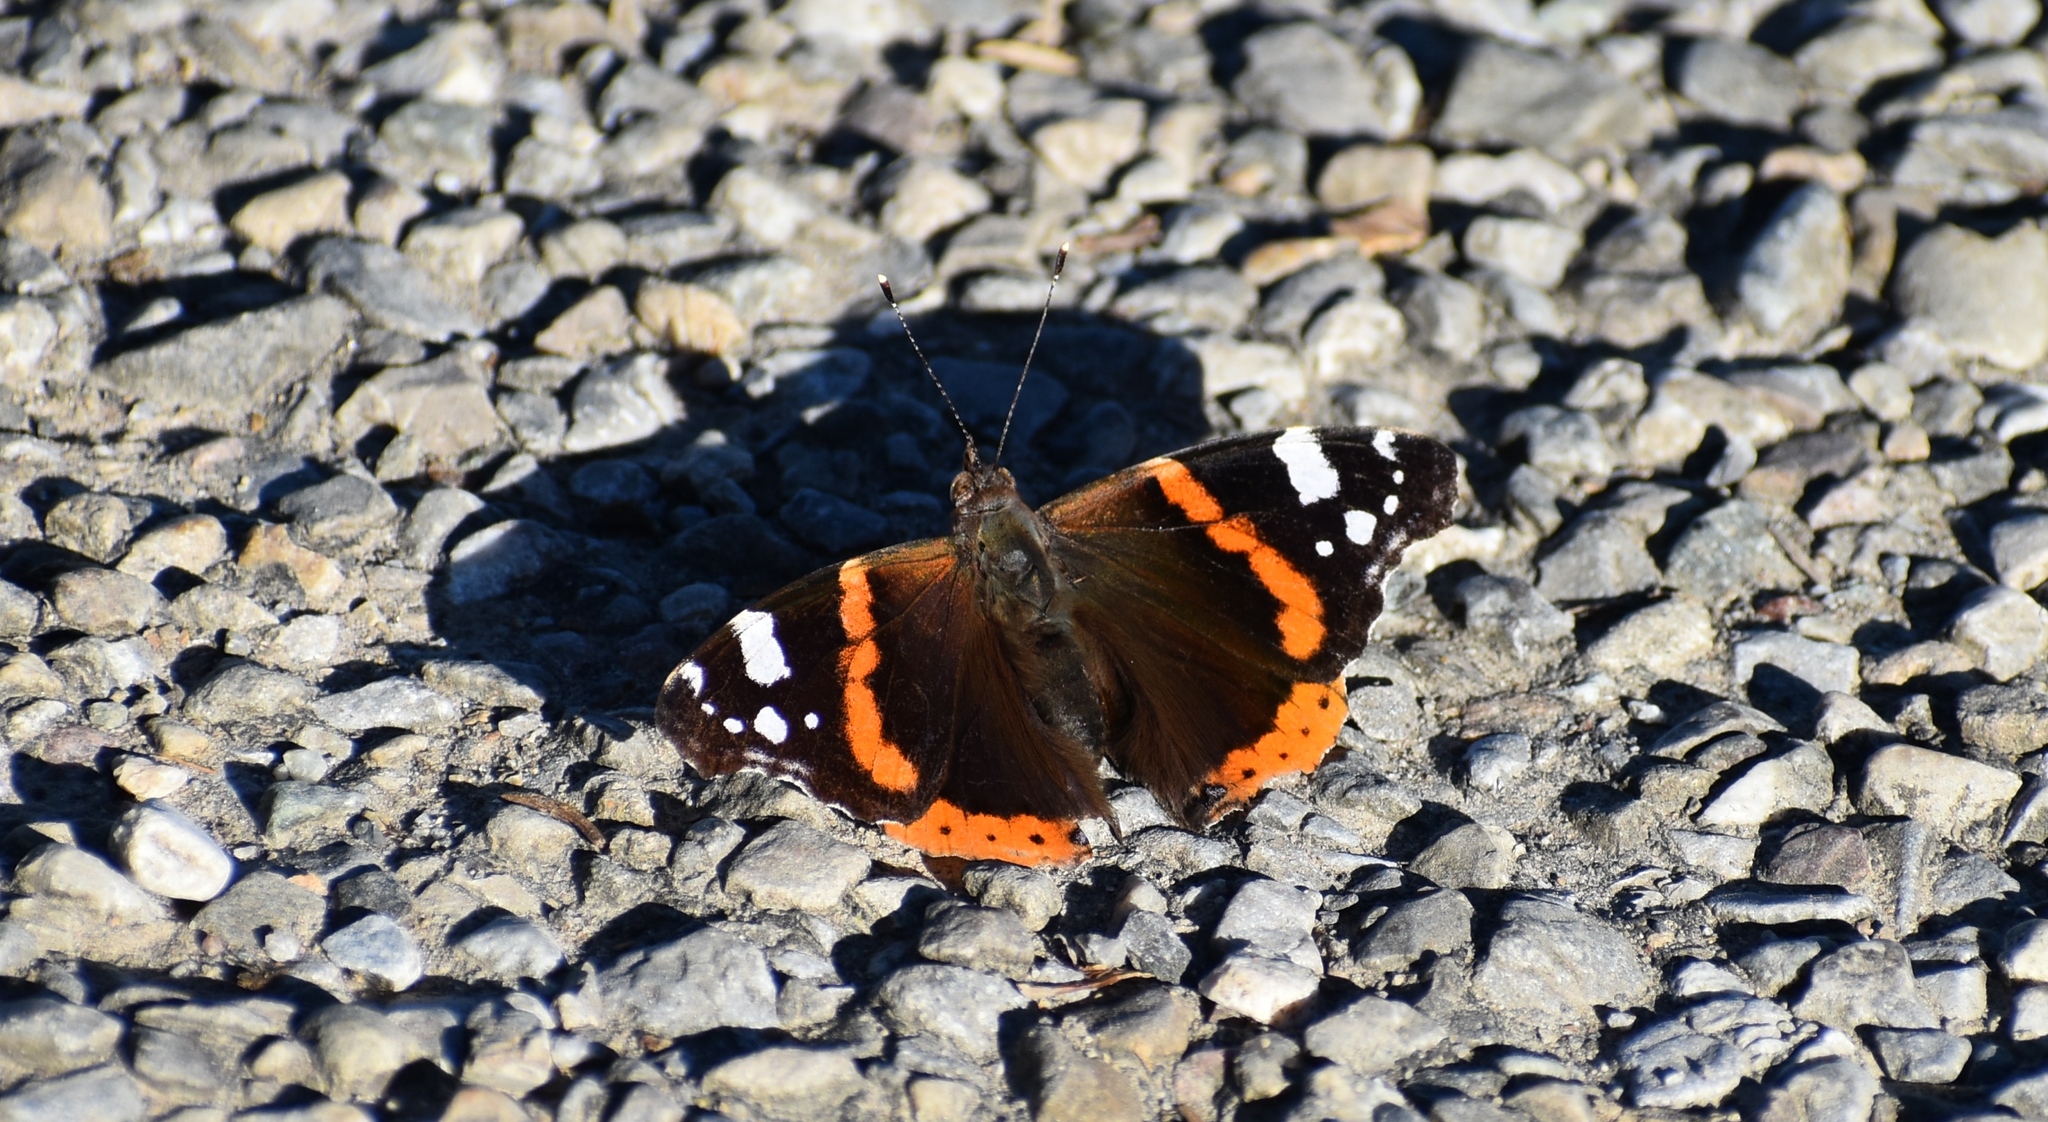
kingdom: Animalia
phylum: Arthropoda
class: Insecta
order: Lepidoptera
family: Nymphalidae
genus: Vanessa
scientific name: Vanessa atalanta
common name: Red admiral
